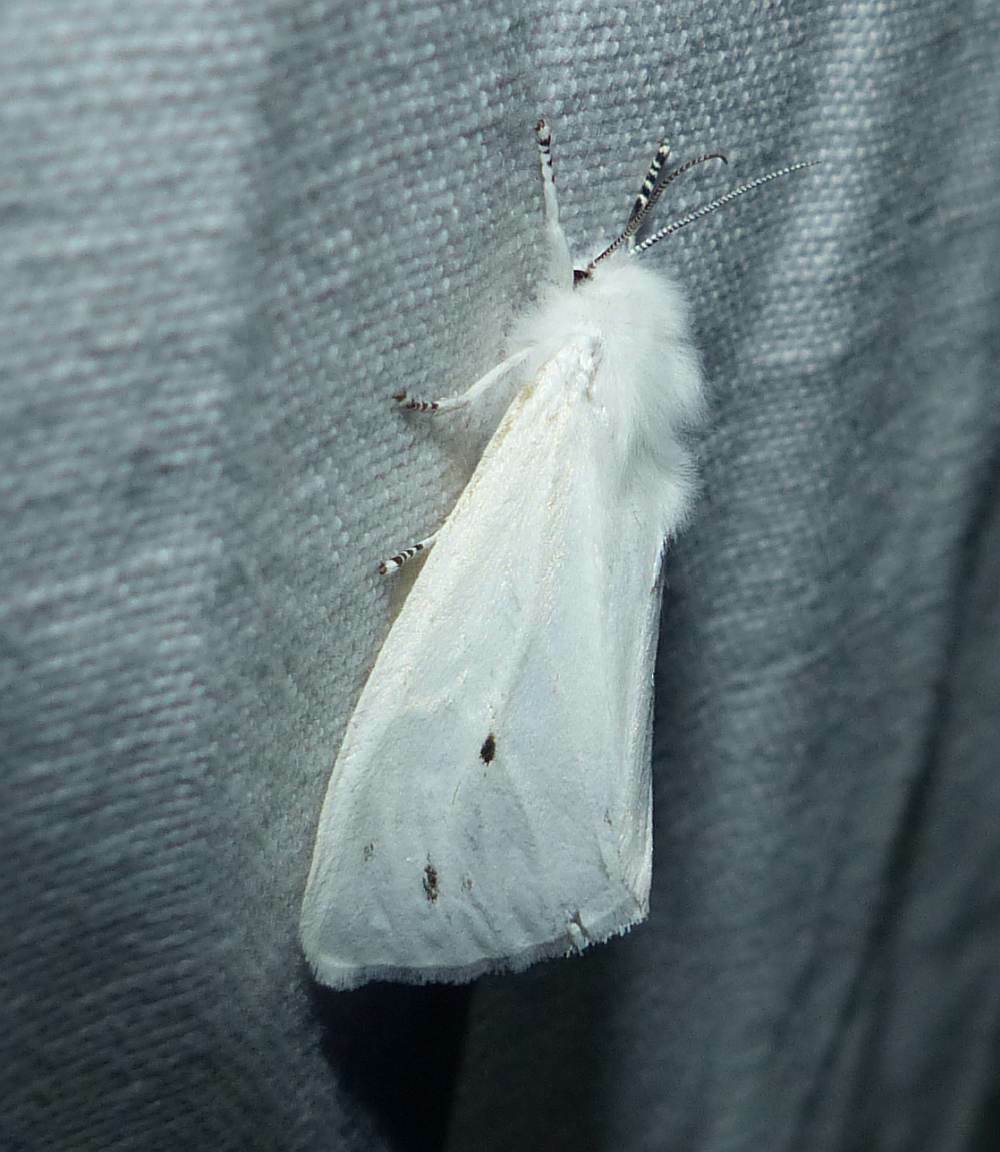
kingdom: Animalia
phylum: Arthropoda
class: Insecta
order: Lepidoptera
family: Erebidae
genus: Spilosoma
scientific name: Spilosoma virginica
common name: Virginia tiger moth
